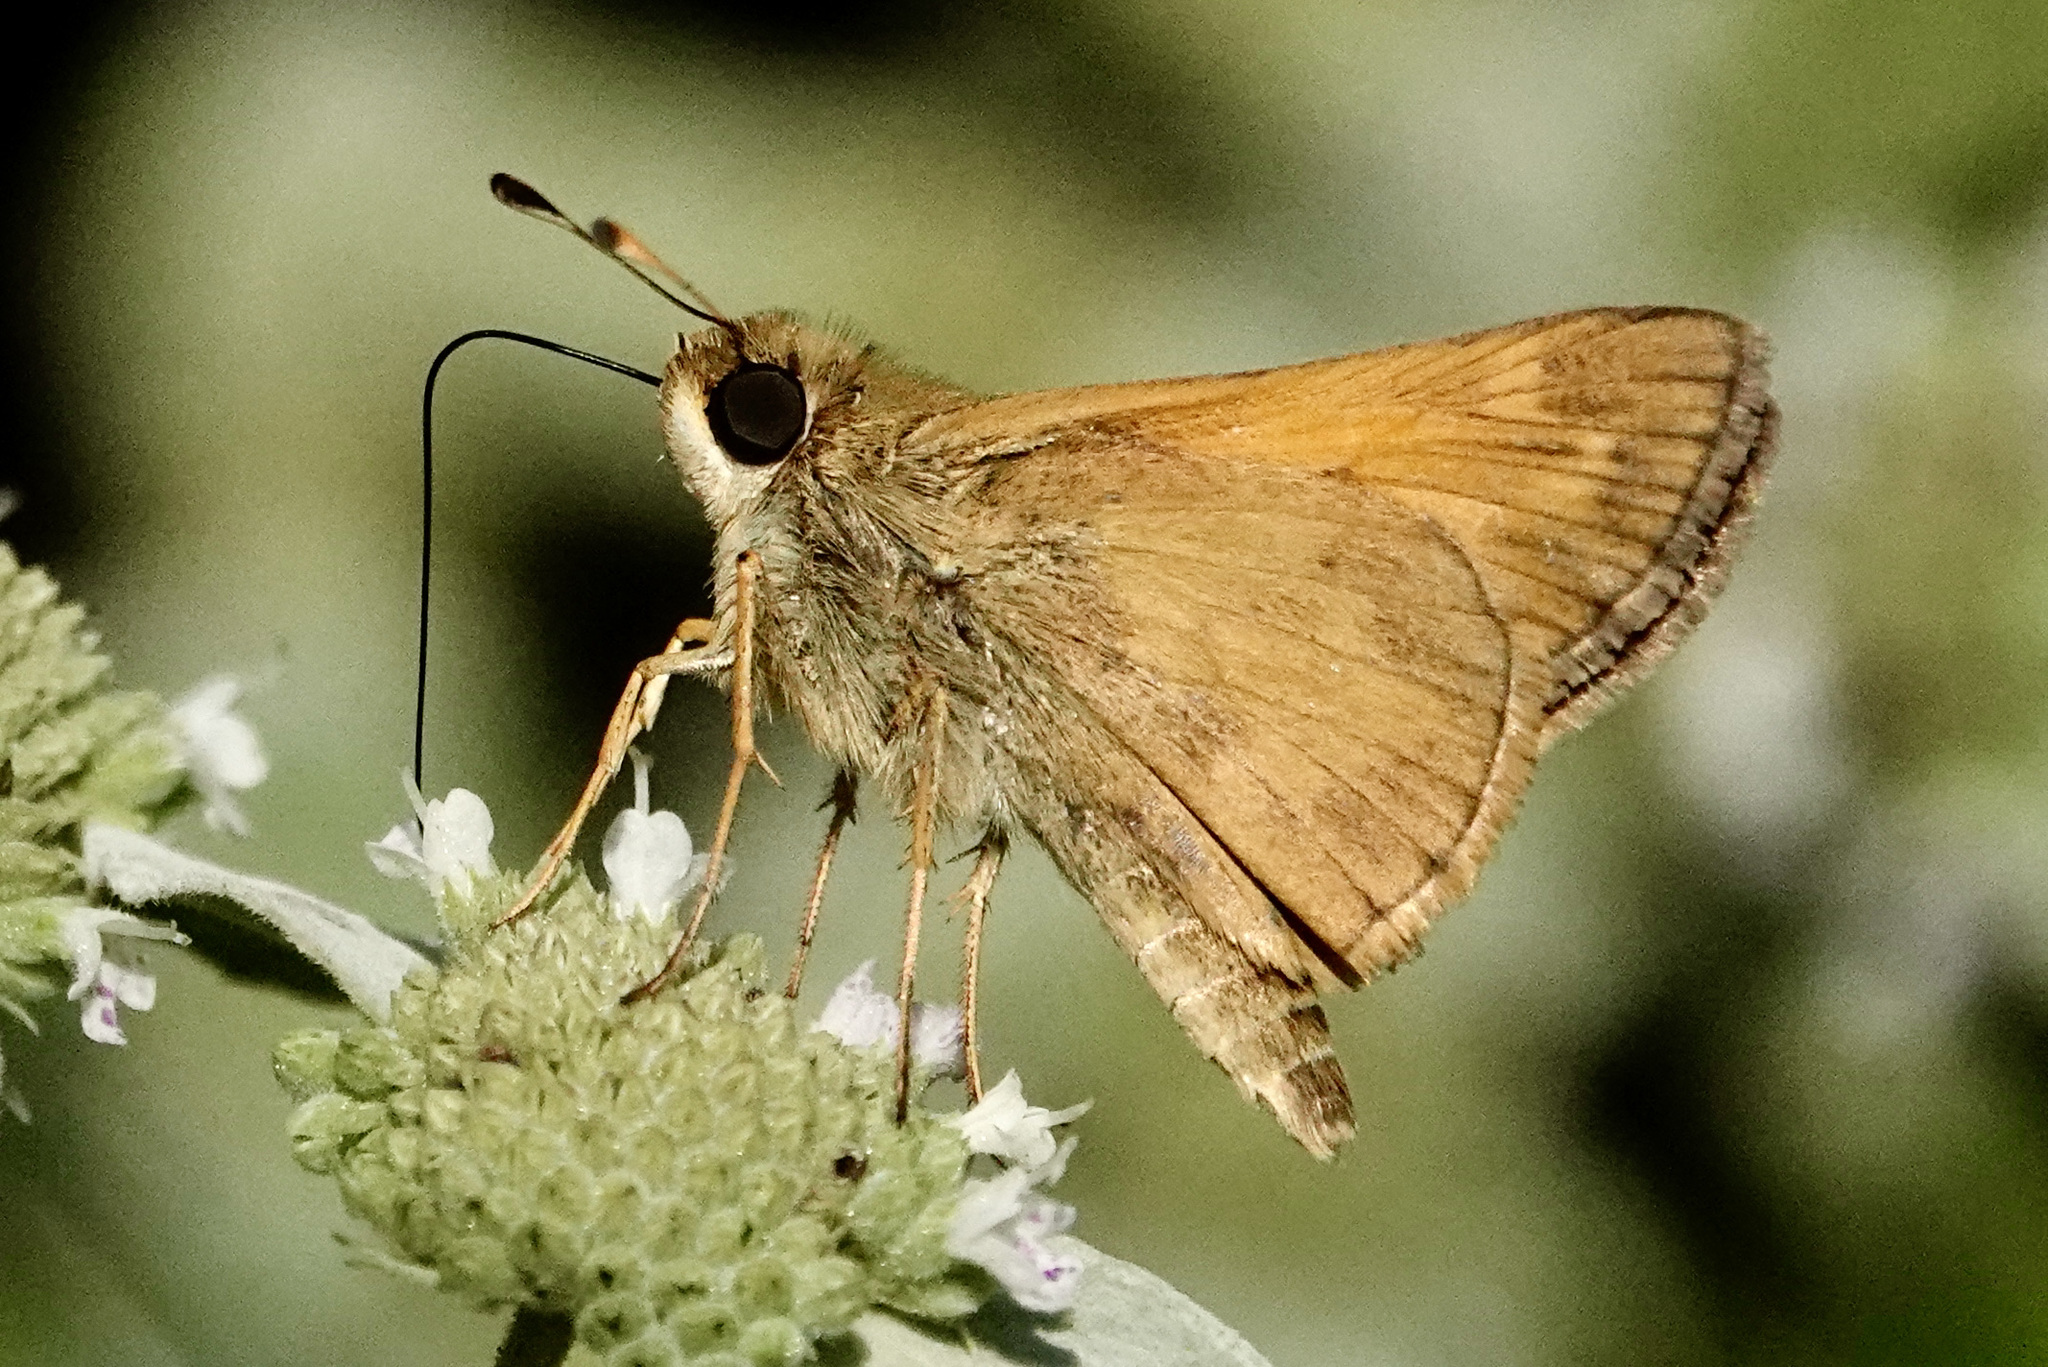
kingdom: Animalia
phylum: Arthropoda
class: Insecta
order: Lepidoptera
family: Hesperiidae
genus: Atalopedes
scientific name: Atalopedes
